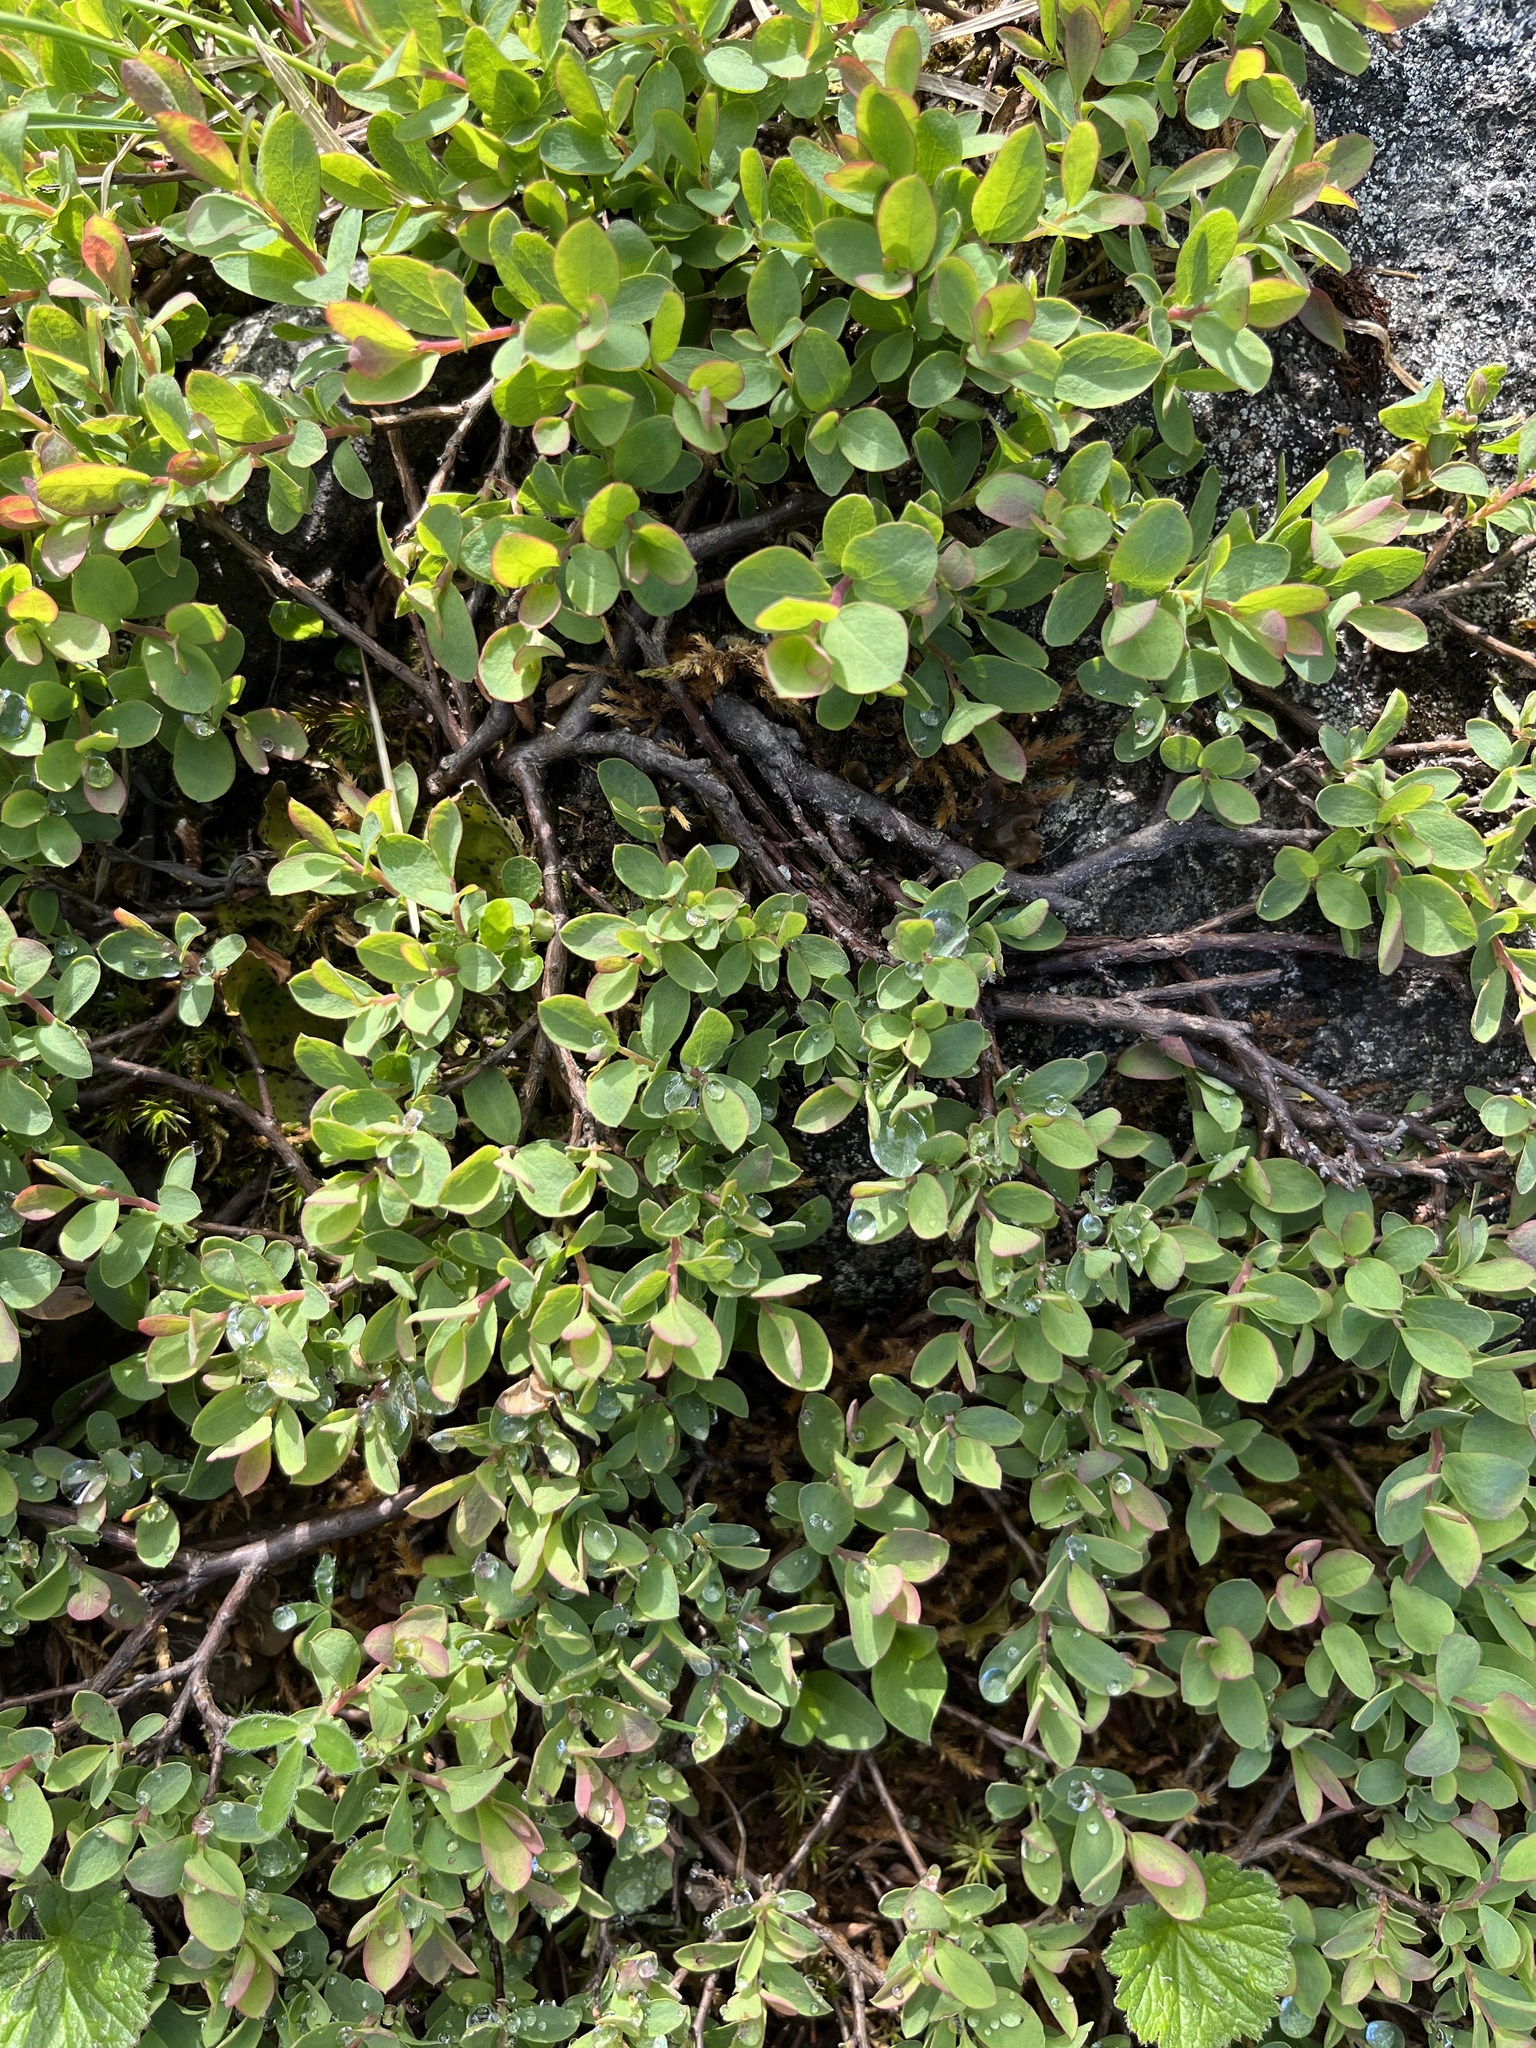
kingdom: Plantae
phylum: Tracheophyta
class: Magnoliopsida
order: Ericales
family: Ericaceae
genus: Vaccinium
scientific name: Vaccinium uliginosum
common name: Bog bilberry
